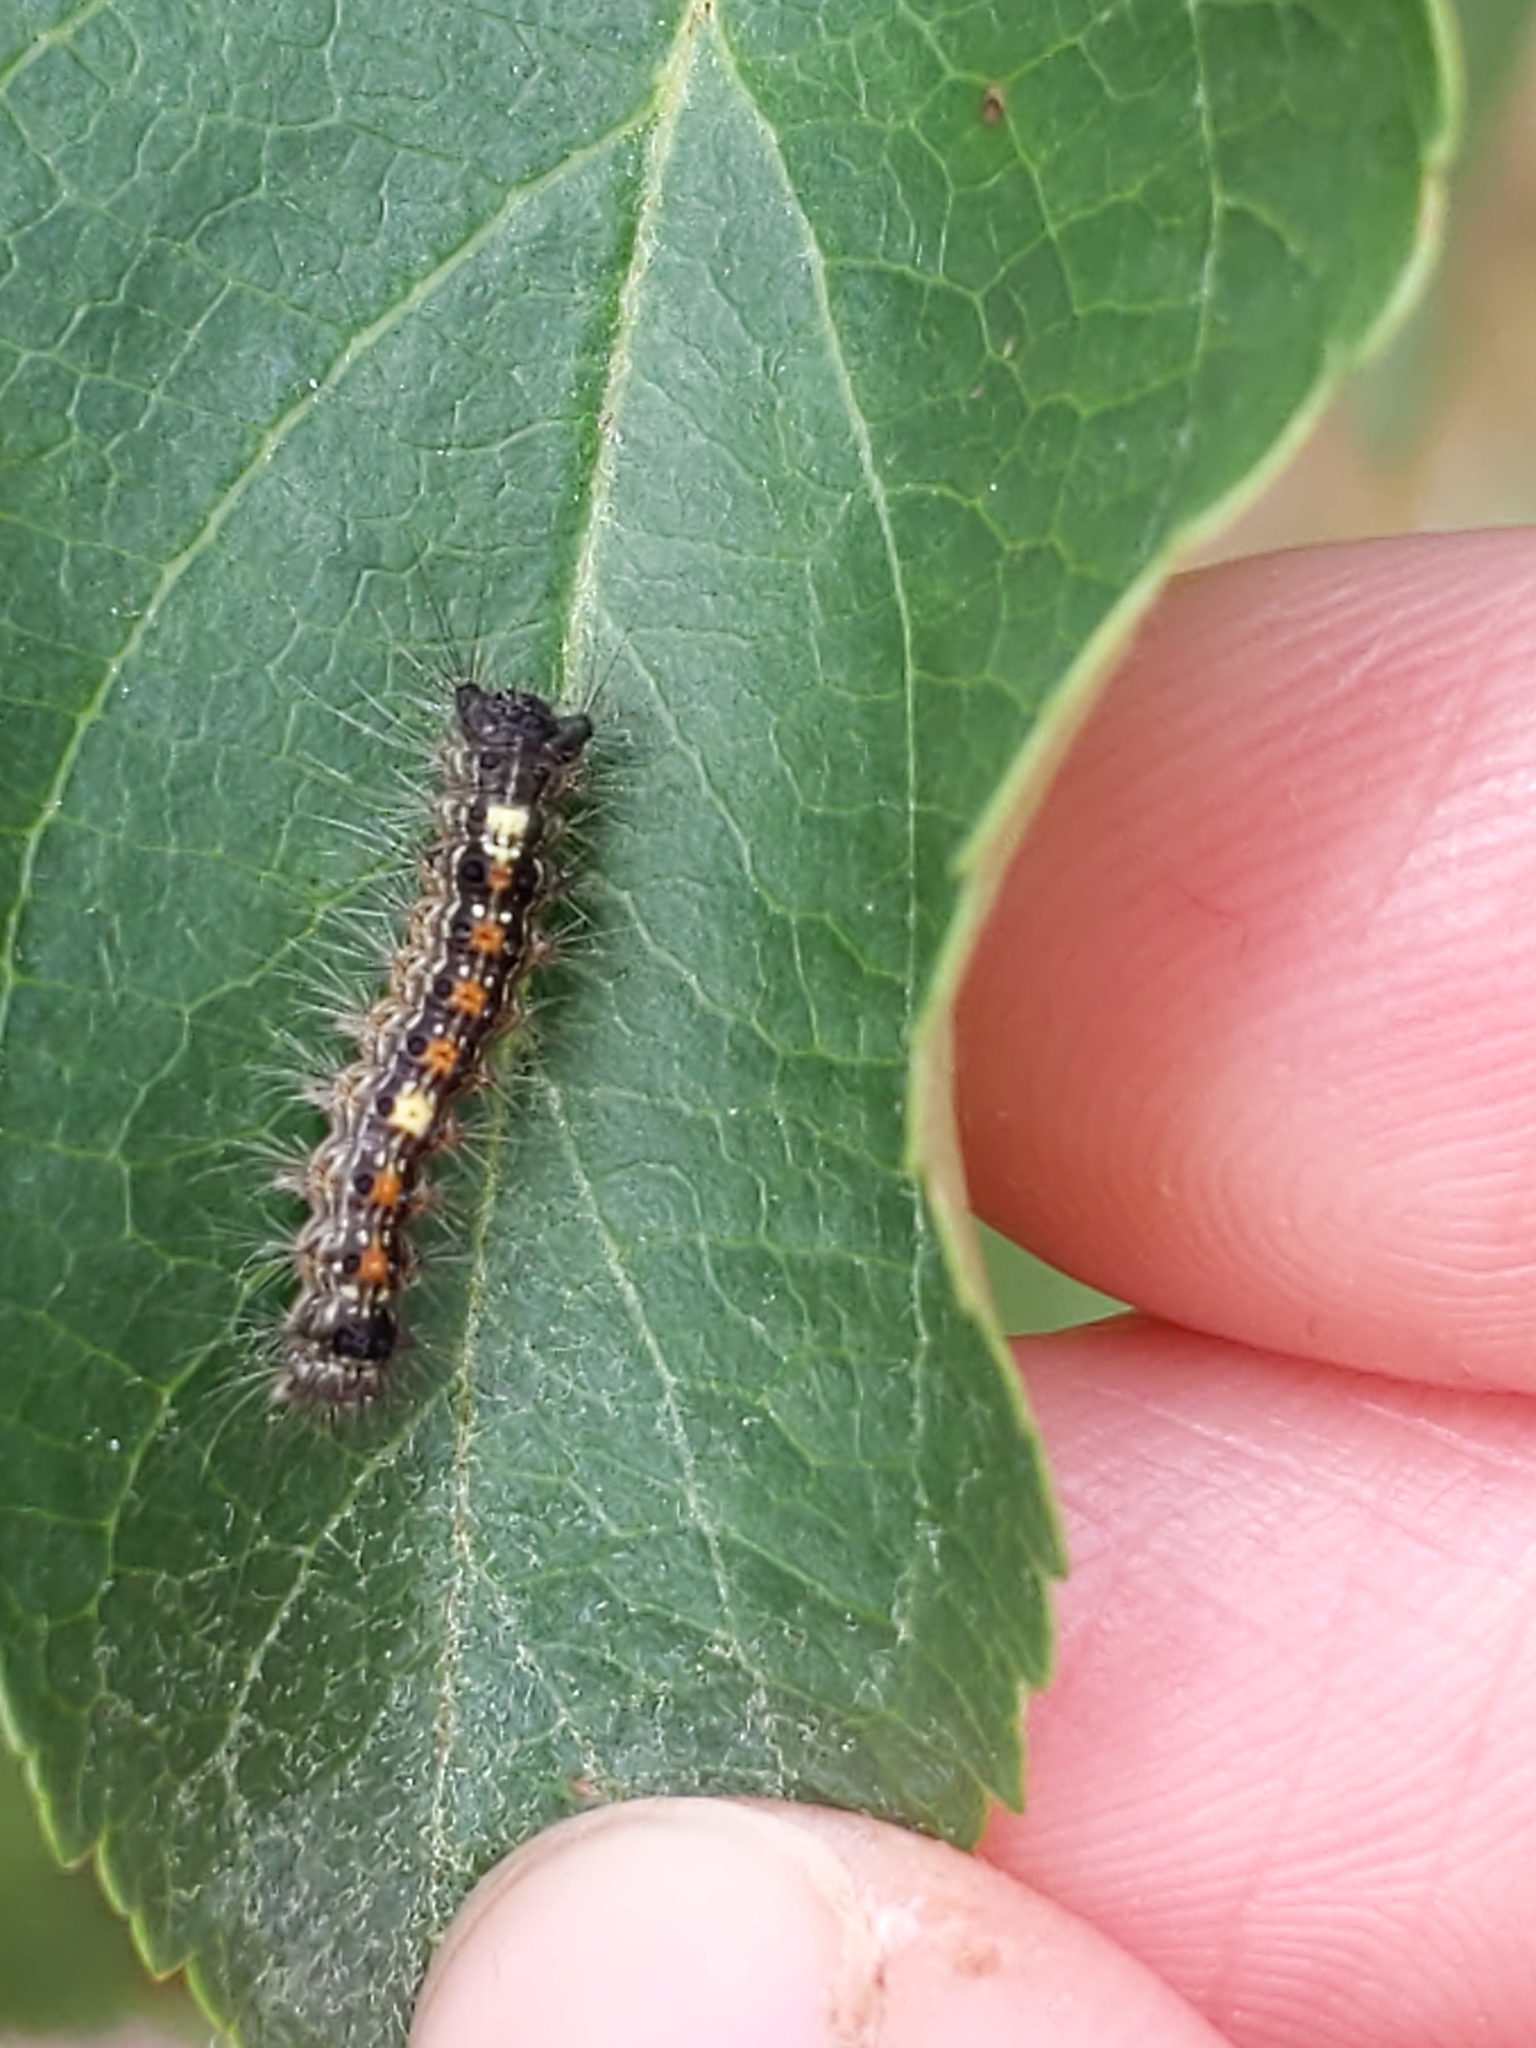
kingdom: Animalia
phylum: Arthropoda
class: Insecta
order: Lepidoptera
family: Erebidae
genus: Lymantria
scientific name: Lymantria dispar
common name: Gypsy moth
